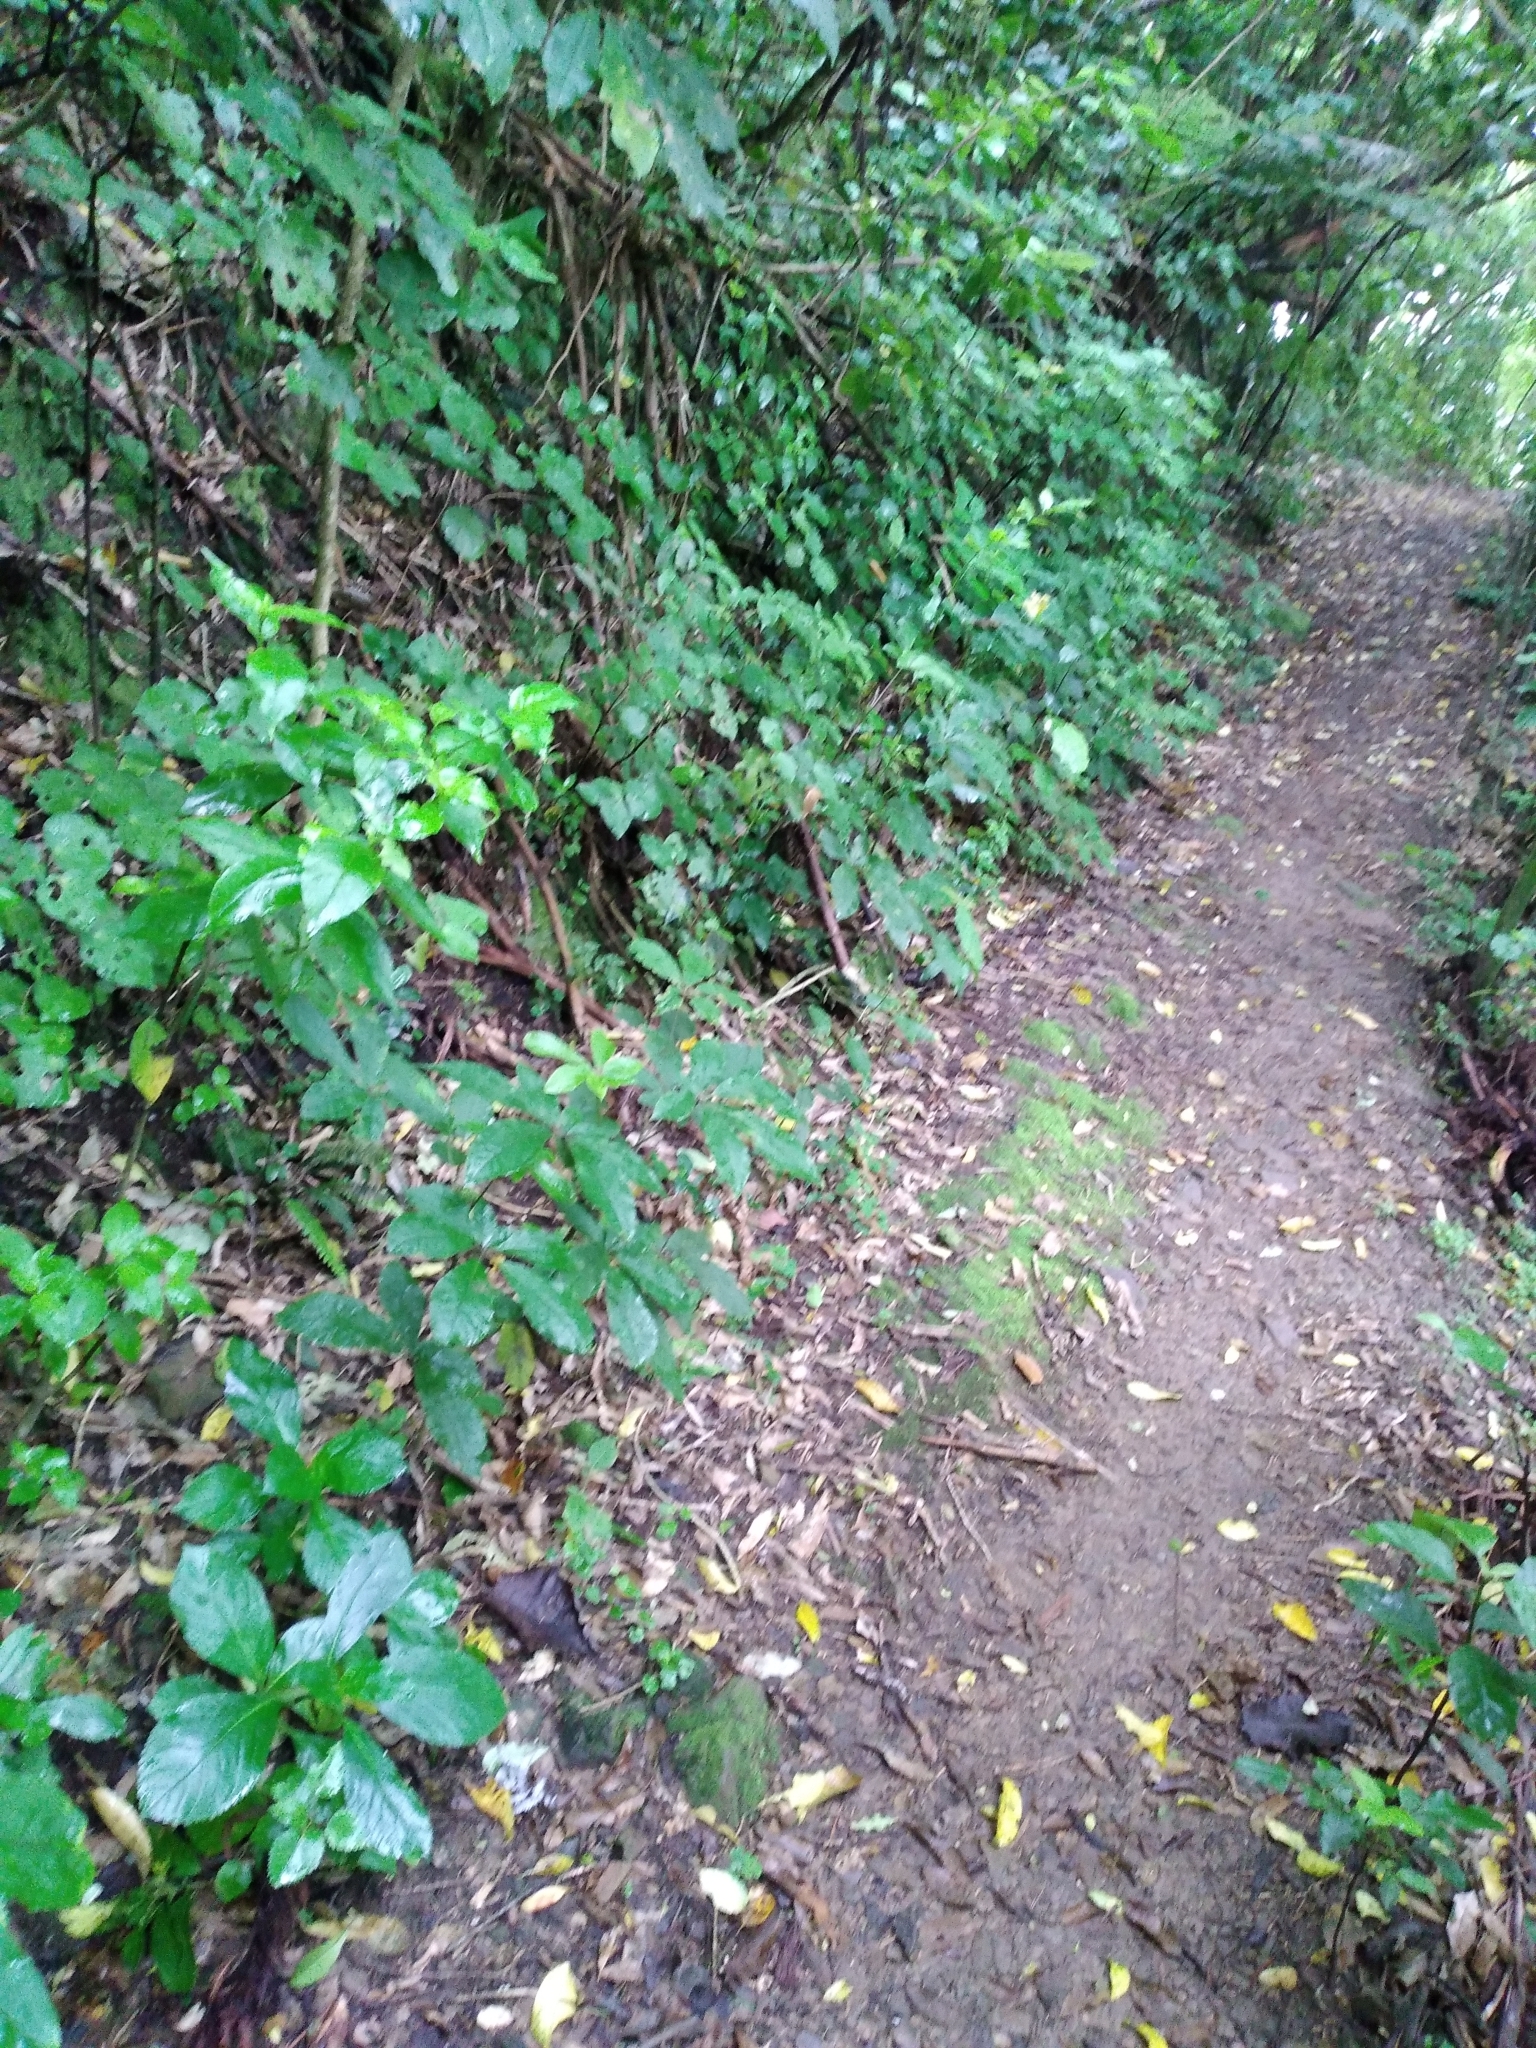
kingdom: Plantae
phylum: Tracheophyta
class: Magnoliopsida
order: Cornales
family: Hydrangeaceae
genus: Hydrangea
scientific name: Hydrangea macrophylla
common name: Hydrangea
